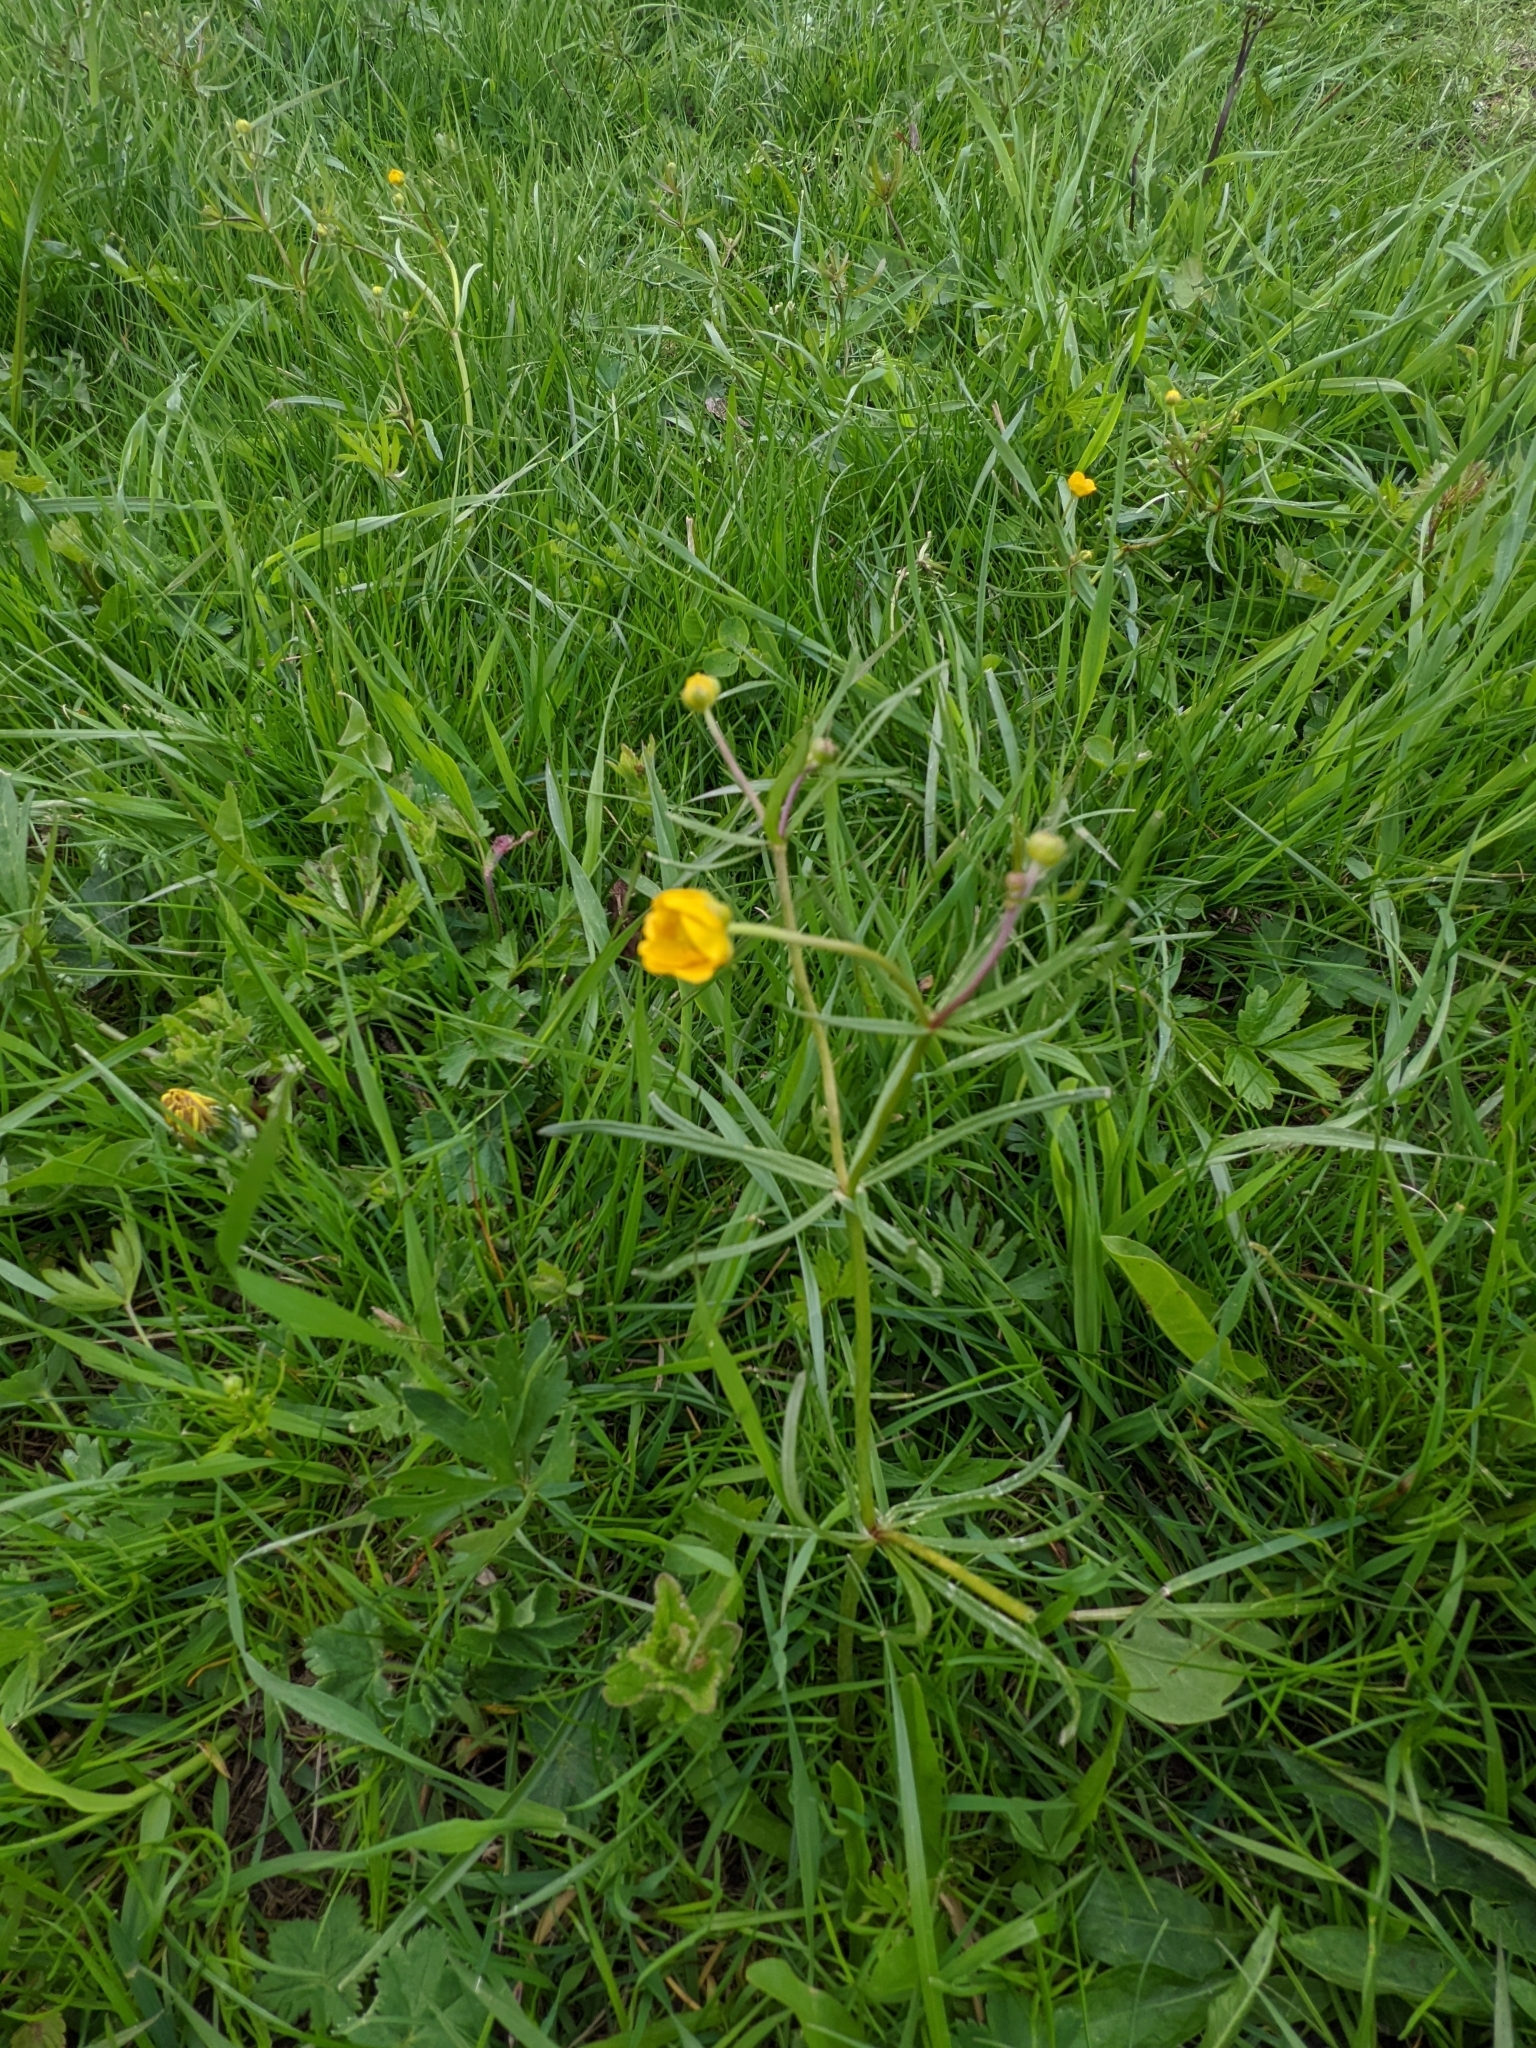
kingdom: Plantae
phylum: Tracheophyta
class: Magnoliopsida
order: Ranunculales
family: Ranunculaceae
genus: Ranunculus
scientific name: Ranunculus auricomus
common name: Goldilocks buttercup
